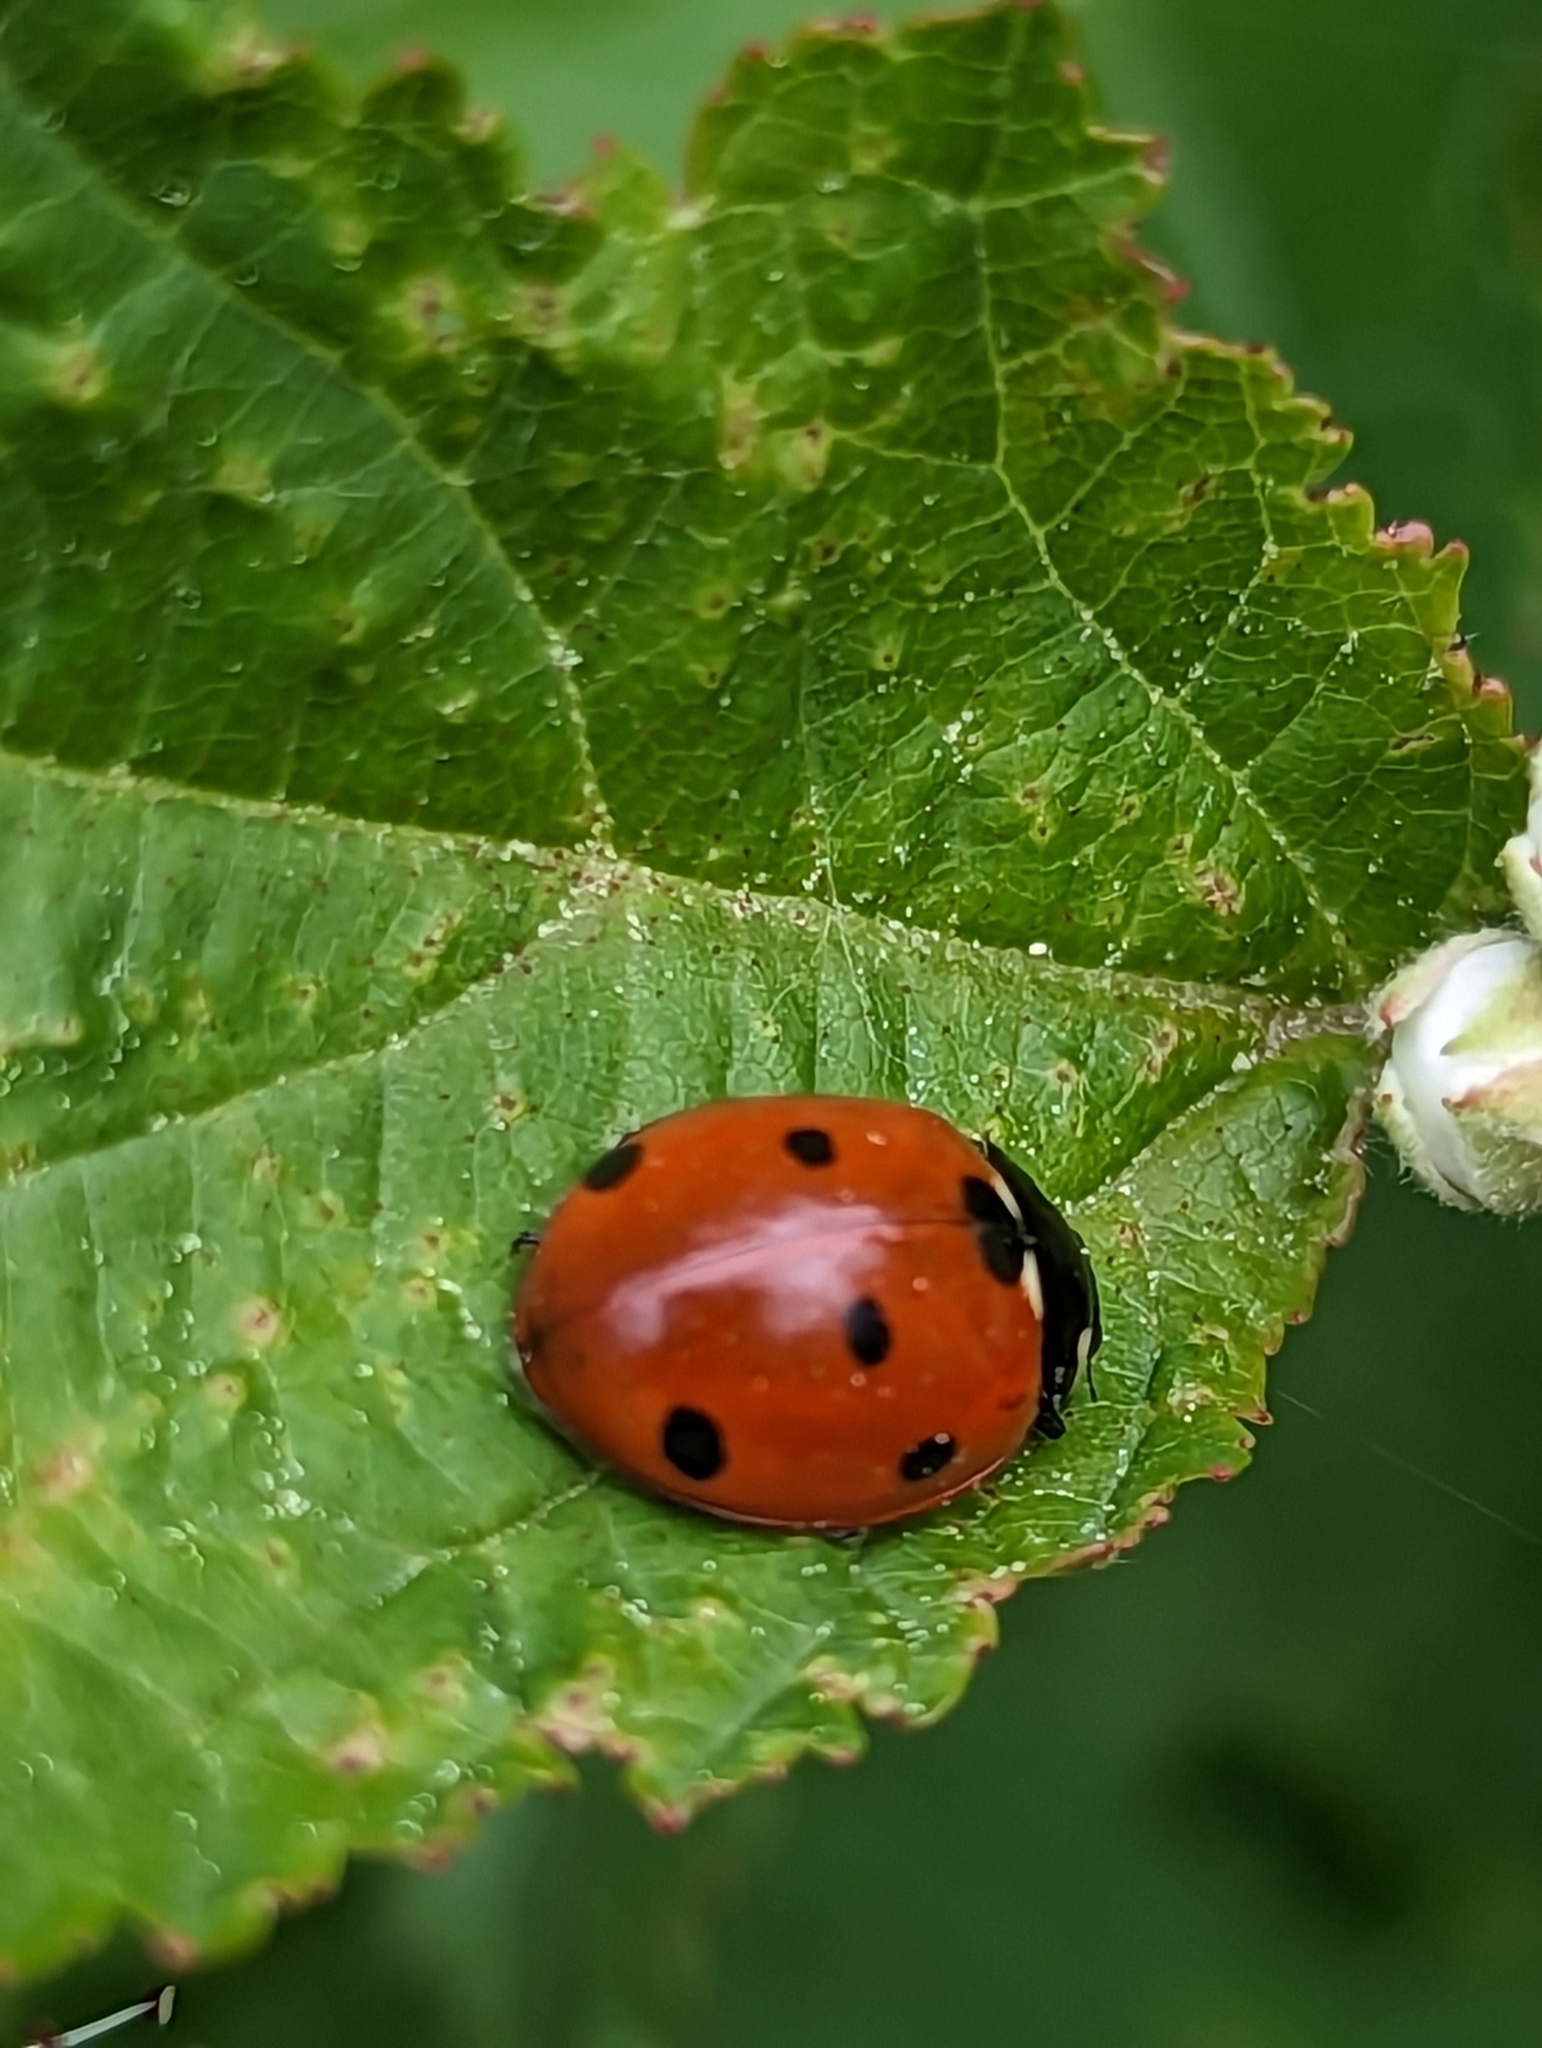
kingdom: Animalia
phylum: Arthropoda
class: Insecta
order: Coleoptera
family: Coccinellidae
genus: Coccinella
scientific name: Coccinella septempunctata
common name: Sevenspotted lady beetle
